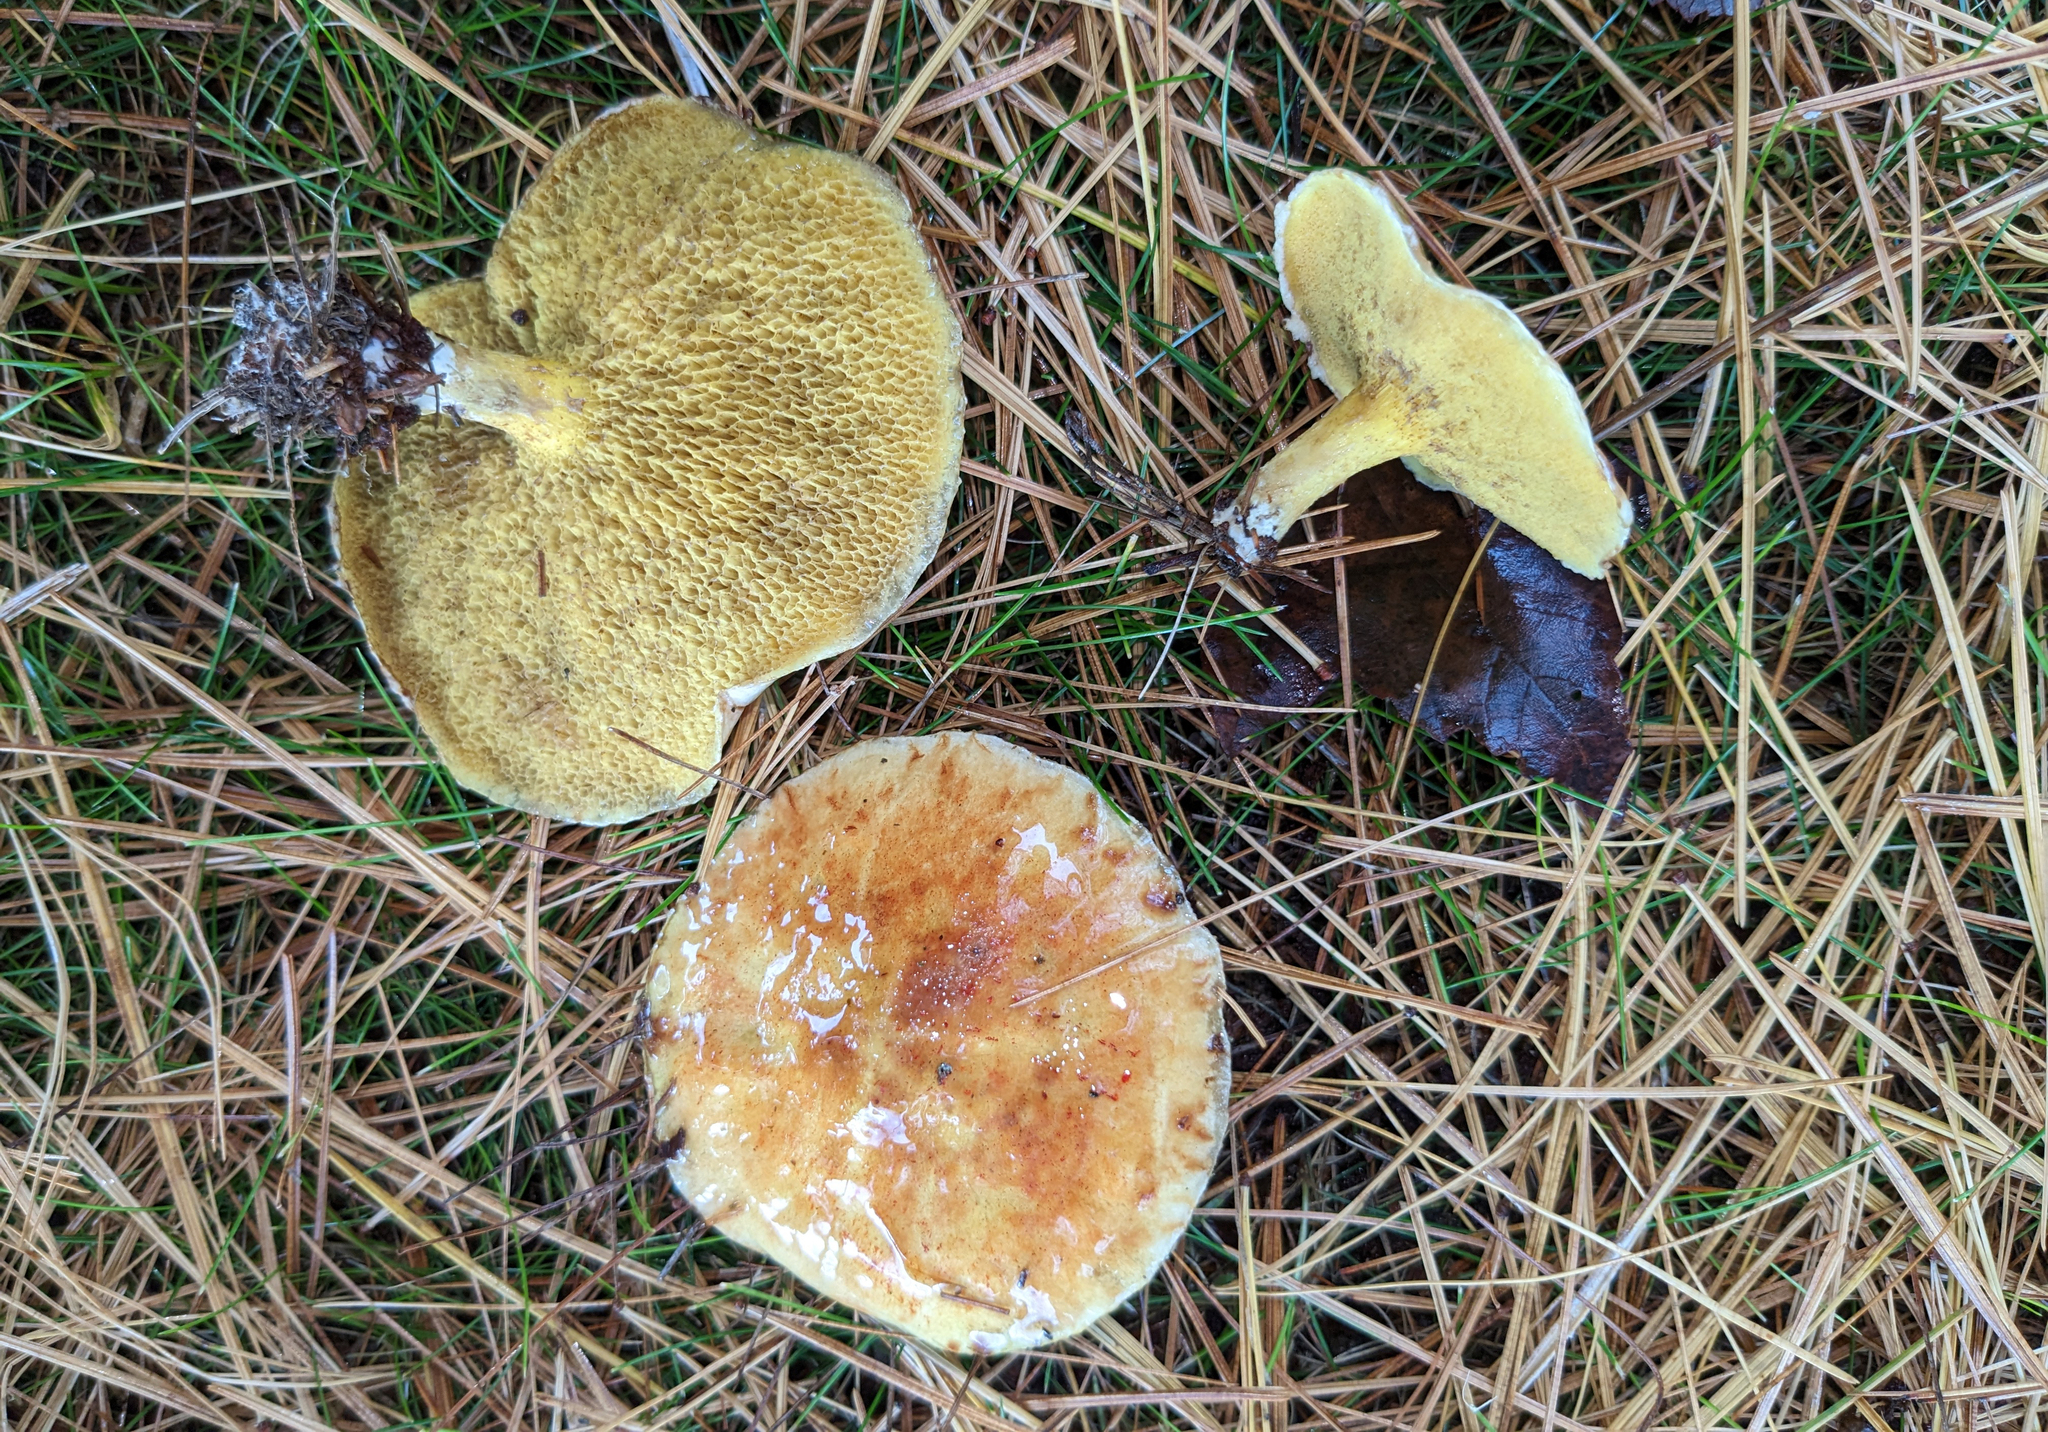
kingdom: Fungi
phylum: Basidiomycota
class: Agaricomycetes
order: Boletales
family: Suillaceae
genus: Suillus
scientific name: Suillus americanus
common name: Chicken fat mushroom
